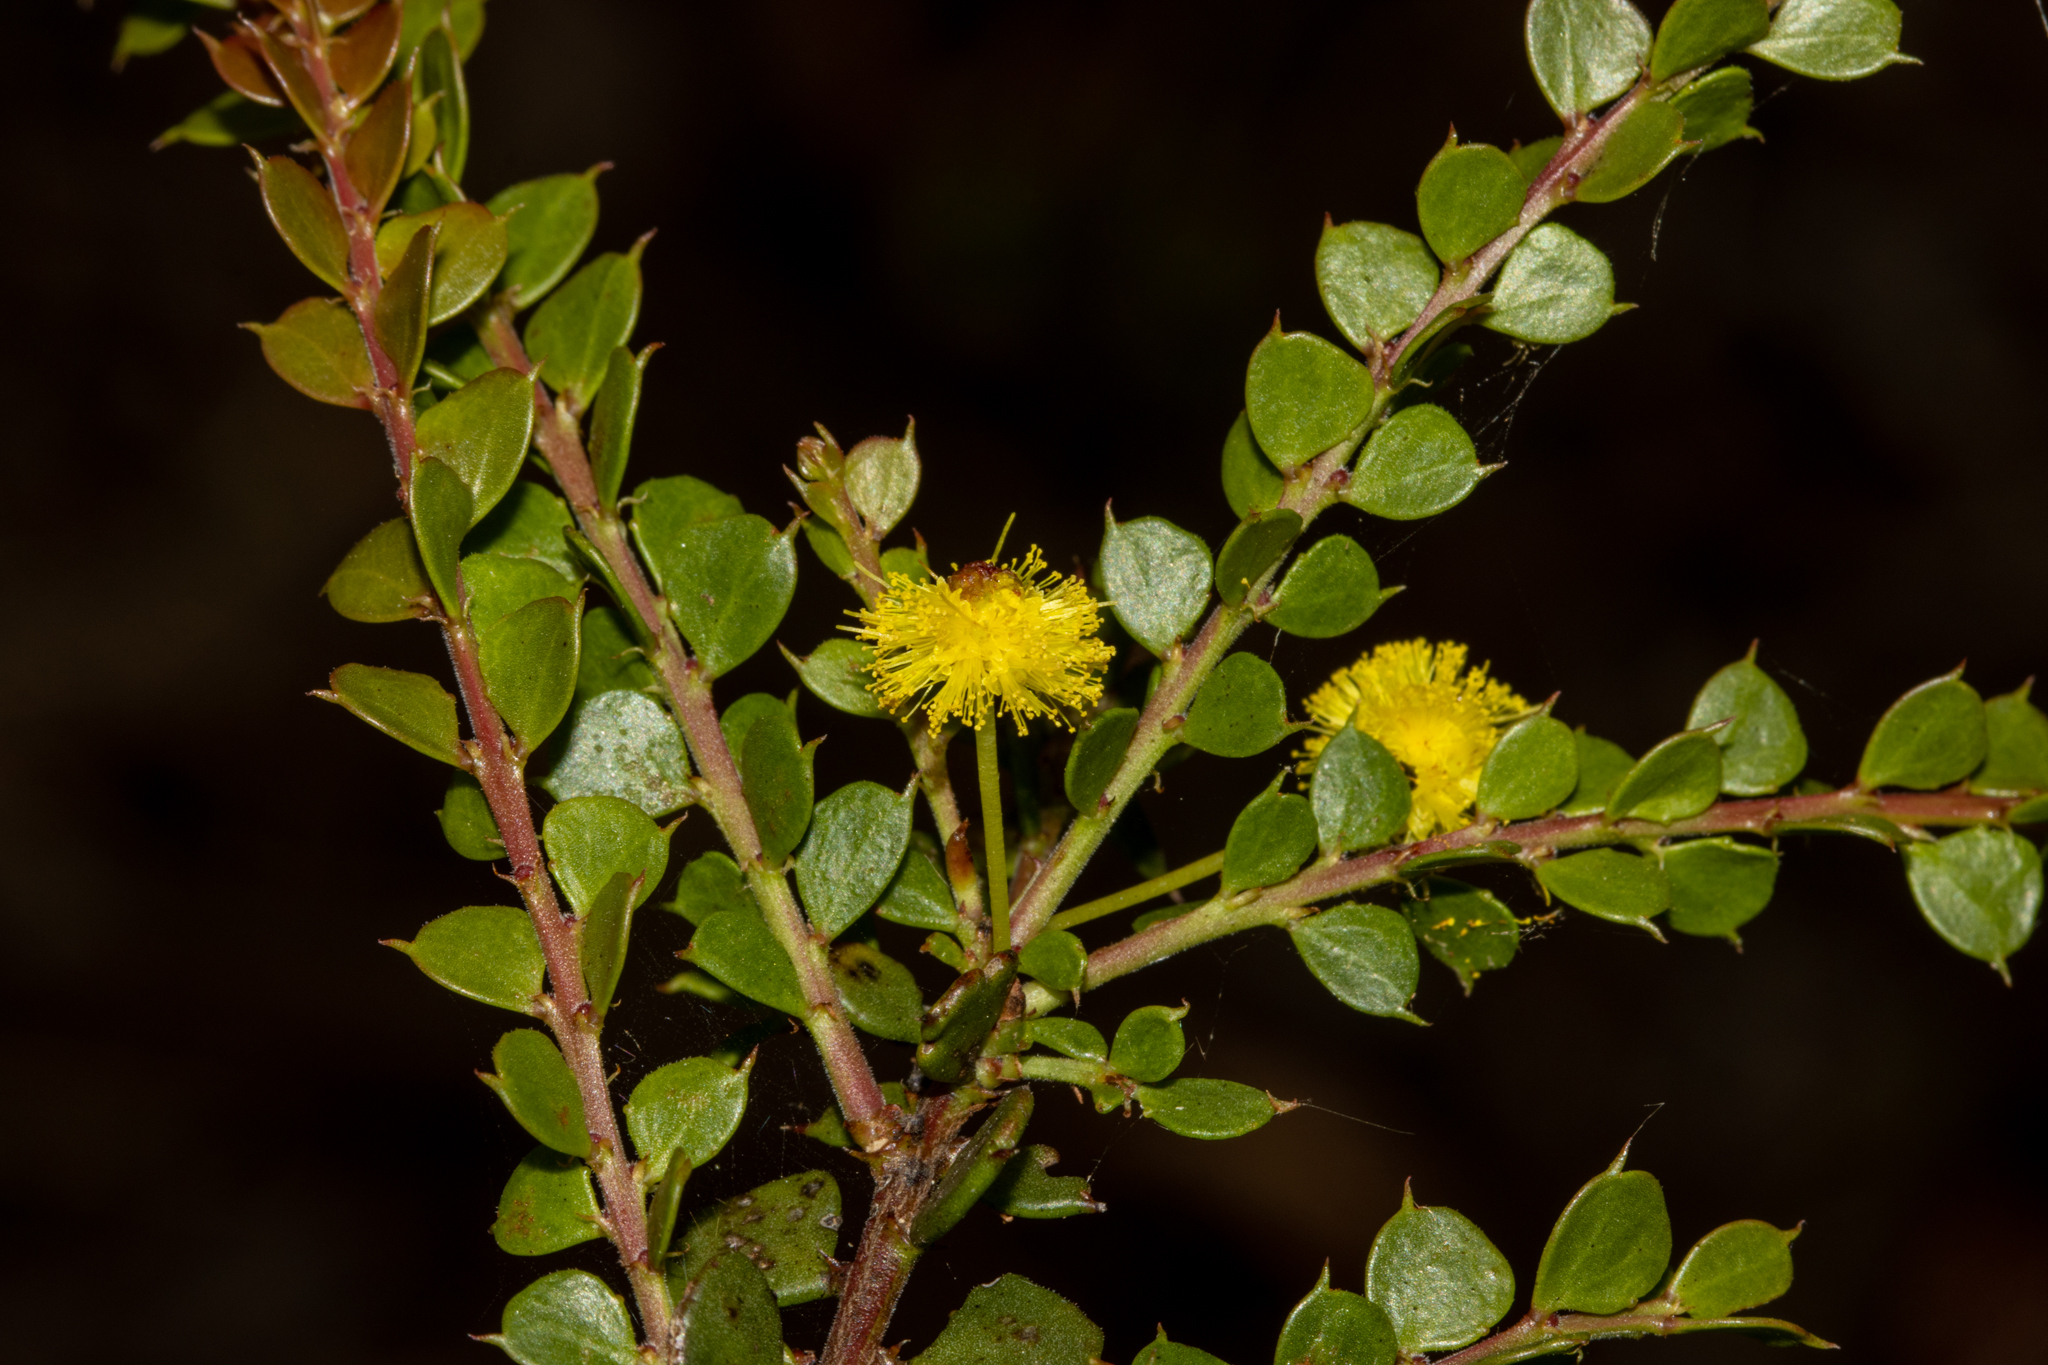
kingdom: Plantae
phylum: Tracheophyta
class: Magnoliopsida
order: Fabales
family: Fabaceae
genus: Acacia
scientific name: Acacia acinacea
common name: Gold-dust acacia
